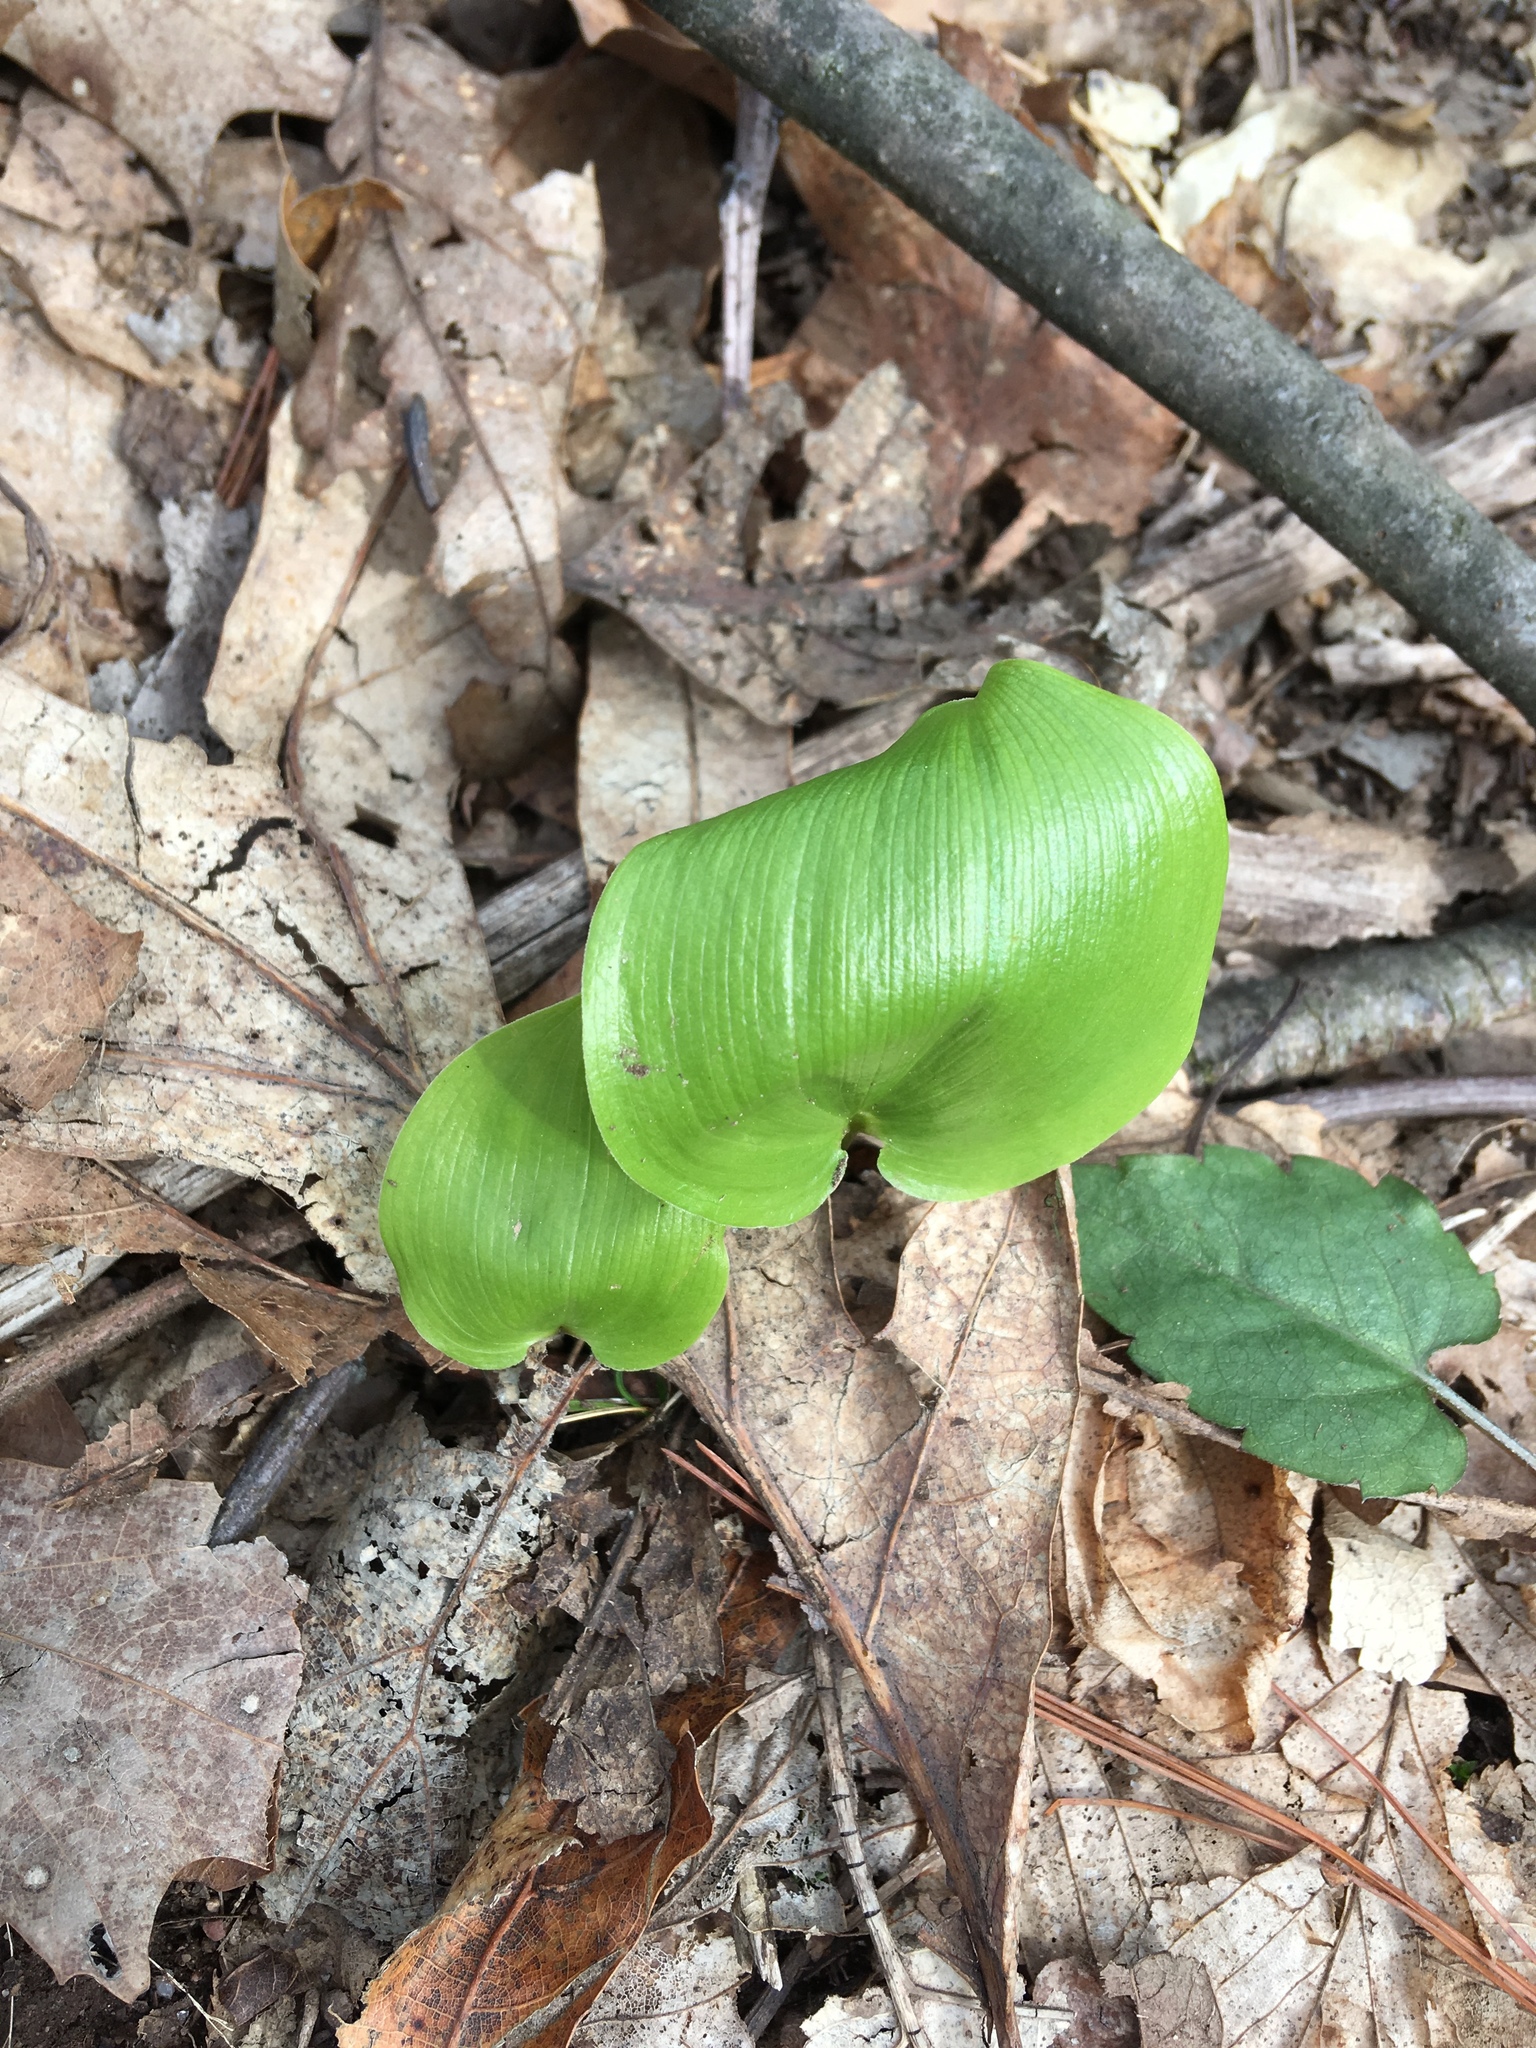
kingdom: Plantae
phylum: Tracheophyta
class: Liliopsida
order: Asparagales
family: Asparagaceae
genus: Maianthemum
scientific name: Maianthemum canadense
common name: False lily-of-the-valley
